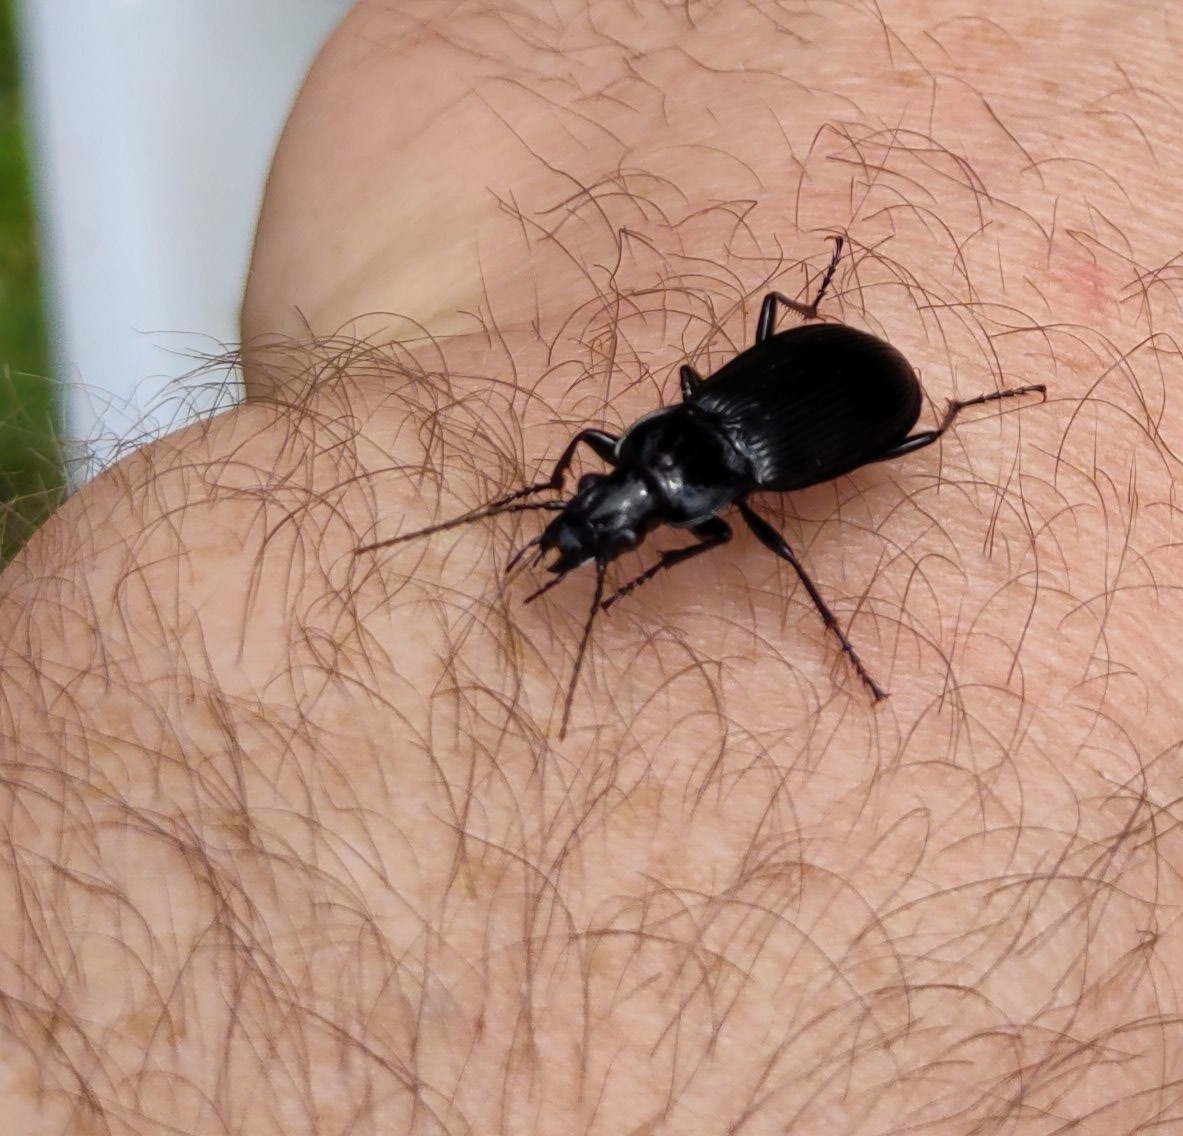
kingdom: Animalia
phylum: Arthropoda
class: Insecta
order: Coleoptera
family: Carabidae
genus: Pterostichus
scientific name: Pterostichus niger
